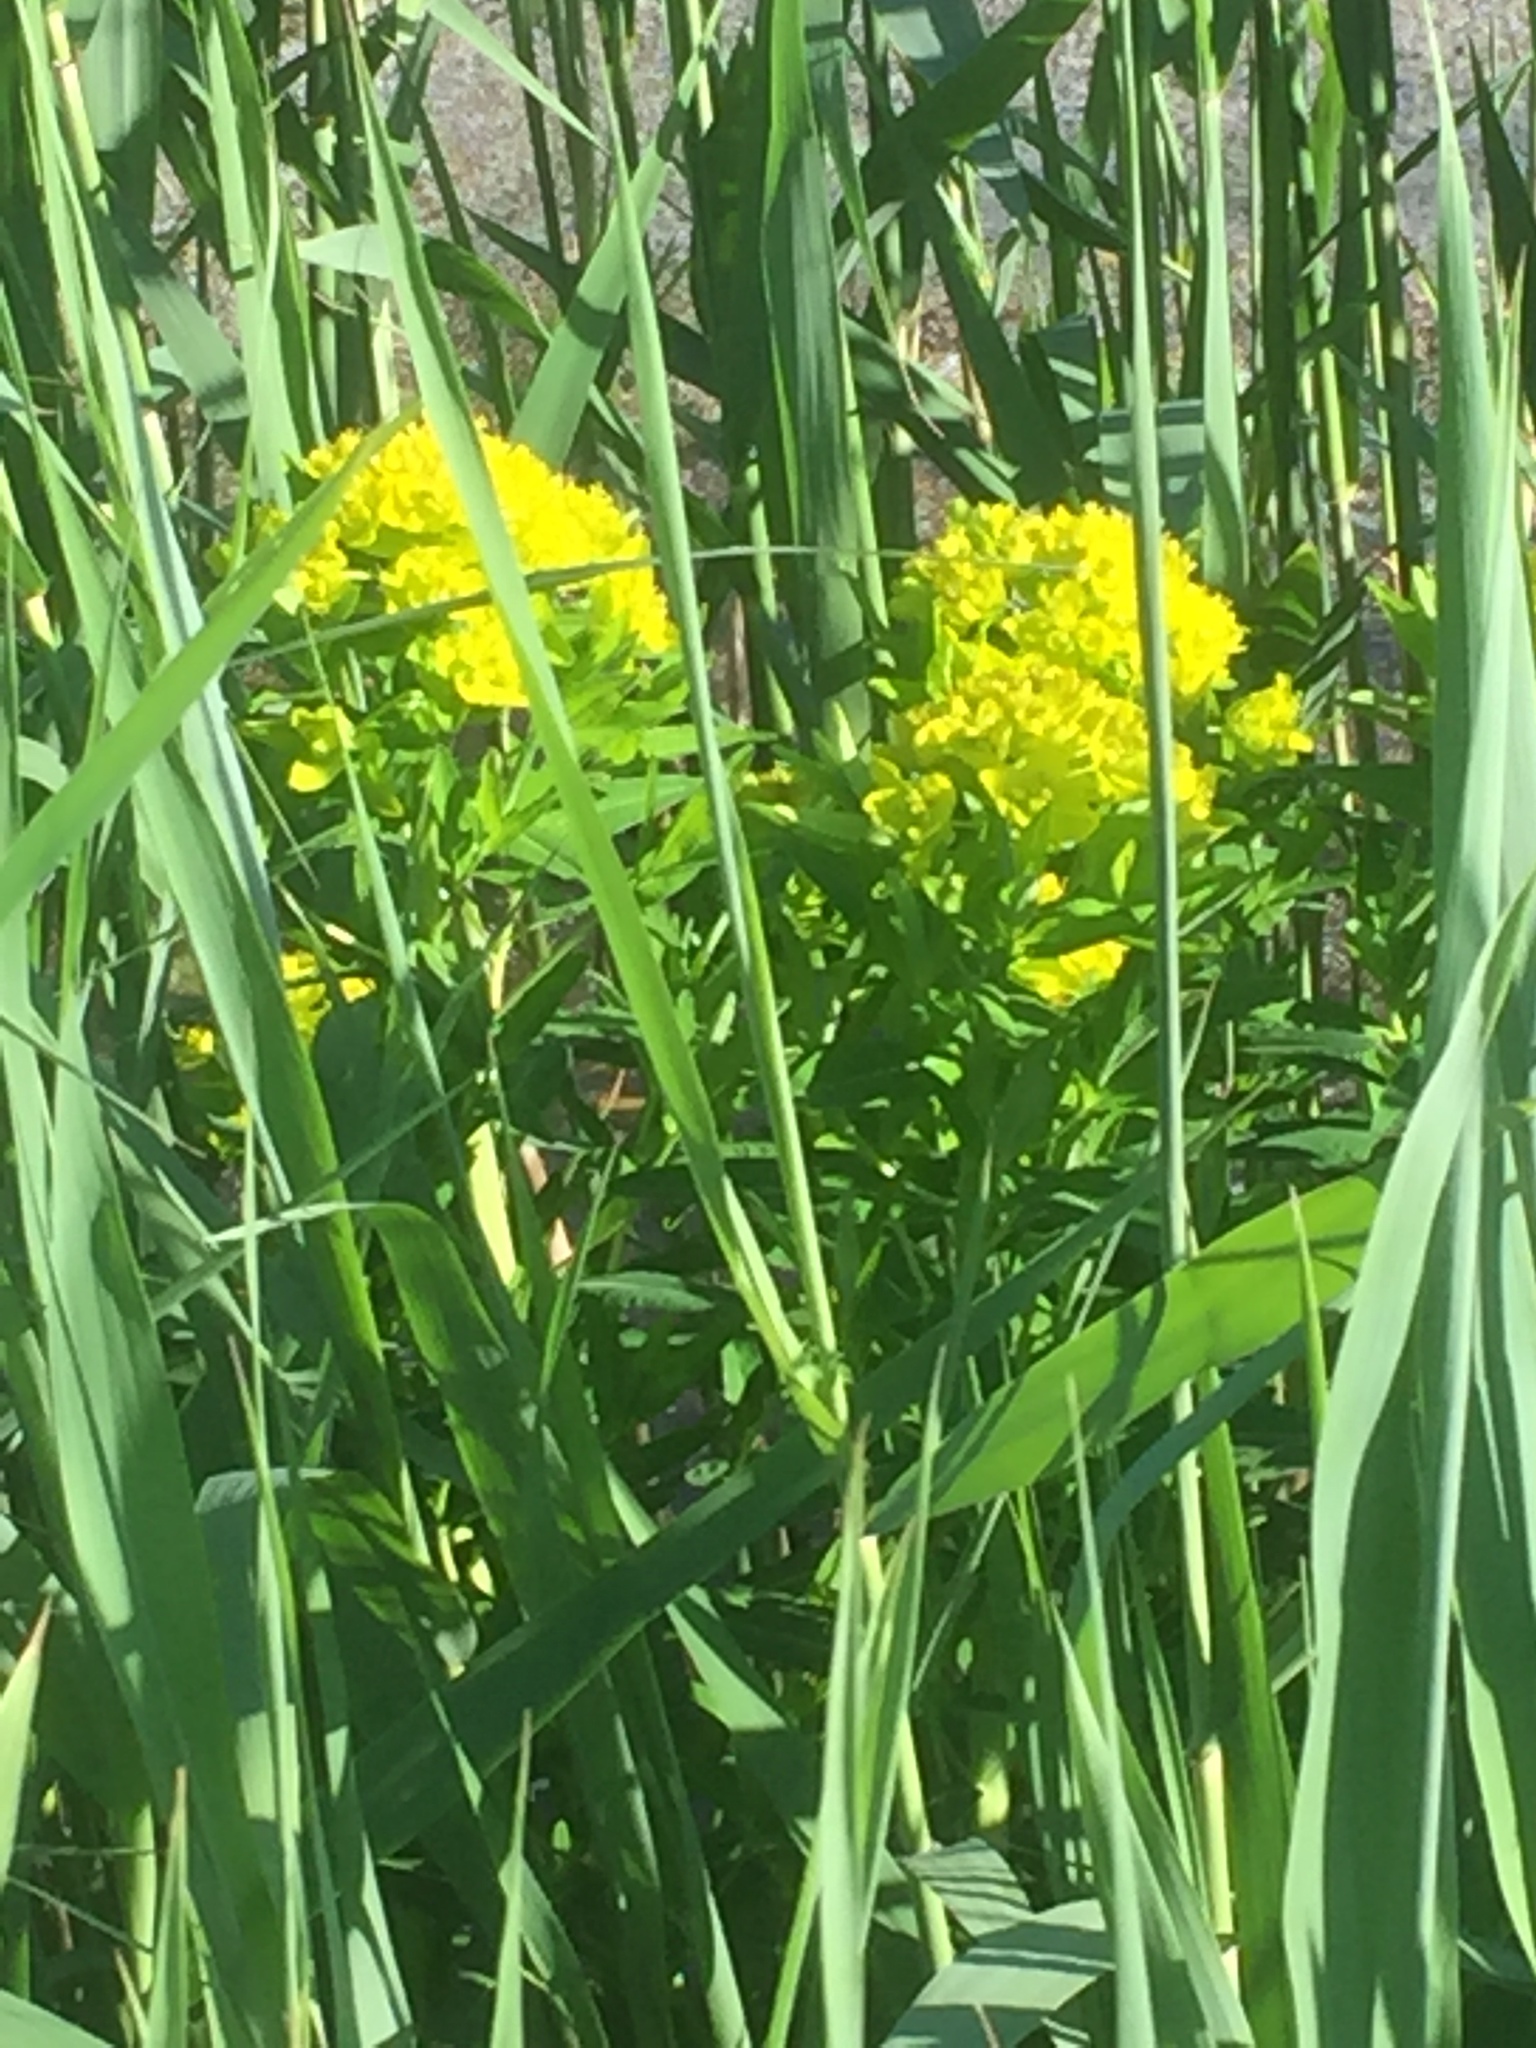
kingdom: Plantae
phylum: Tracheophyta
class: Magnoliopsida
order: Malpighiales
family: Euphorbiaceae
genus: Euphorbia
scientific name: Euphorbia palustris
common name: Marsh spurge
